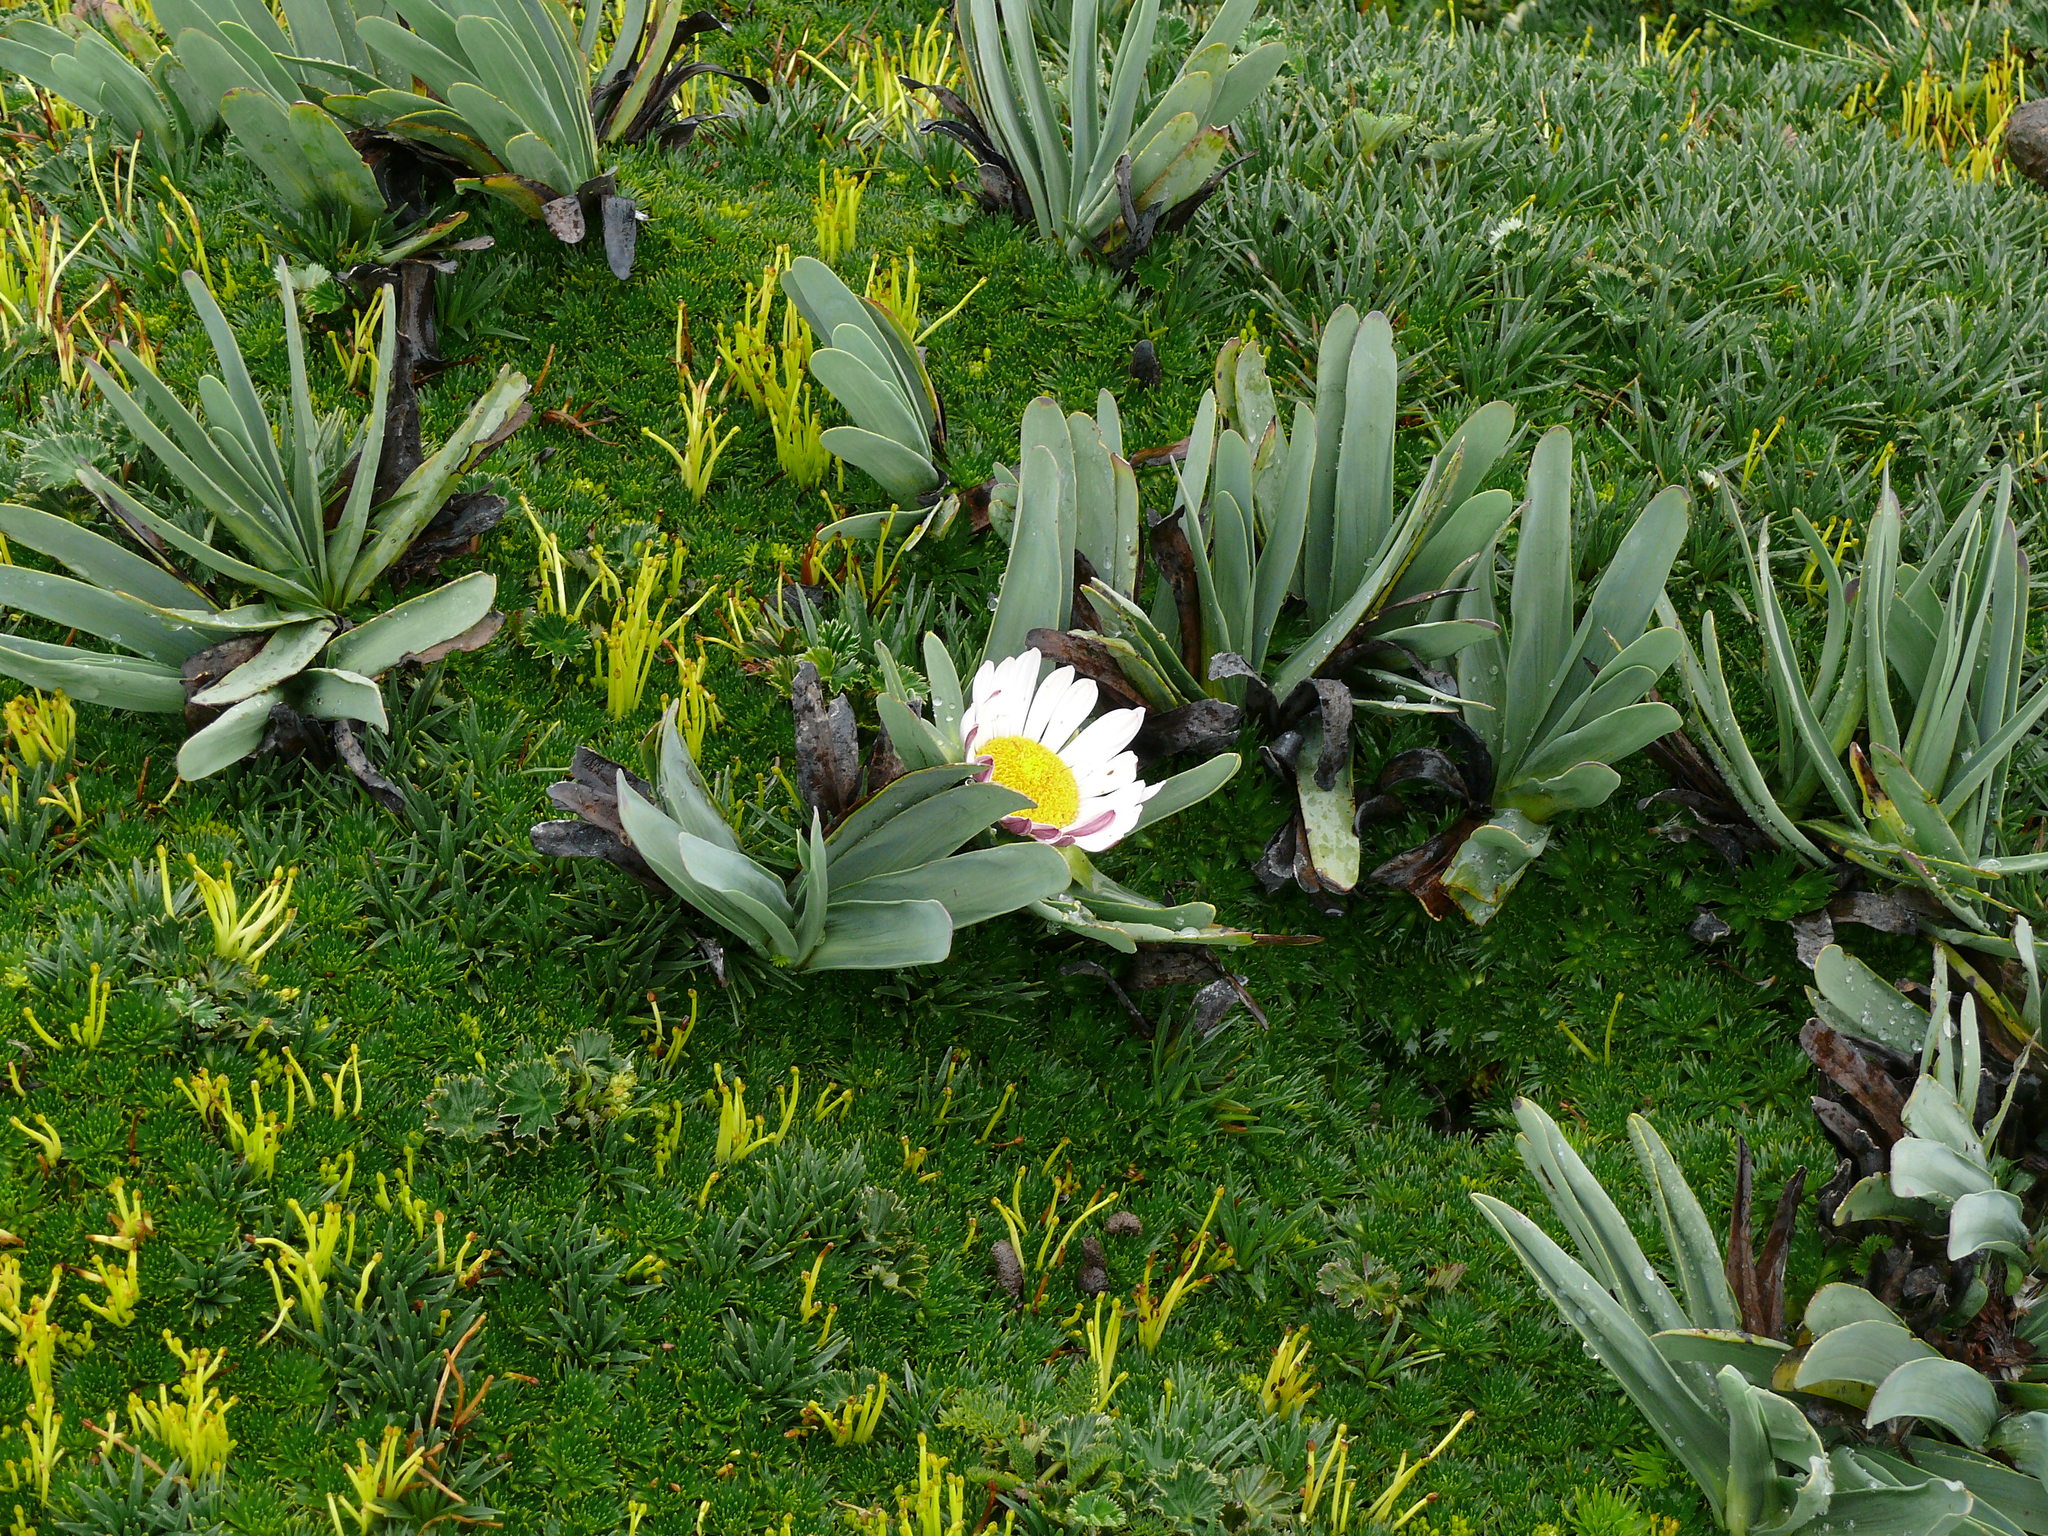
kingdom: Plantae
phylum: Tracheophyta
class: Magnoliopsida
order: Asterales
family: Asteraceae
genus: Rockhausenia
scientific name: Rockhausenia nubigena
